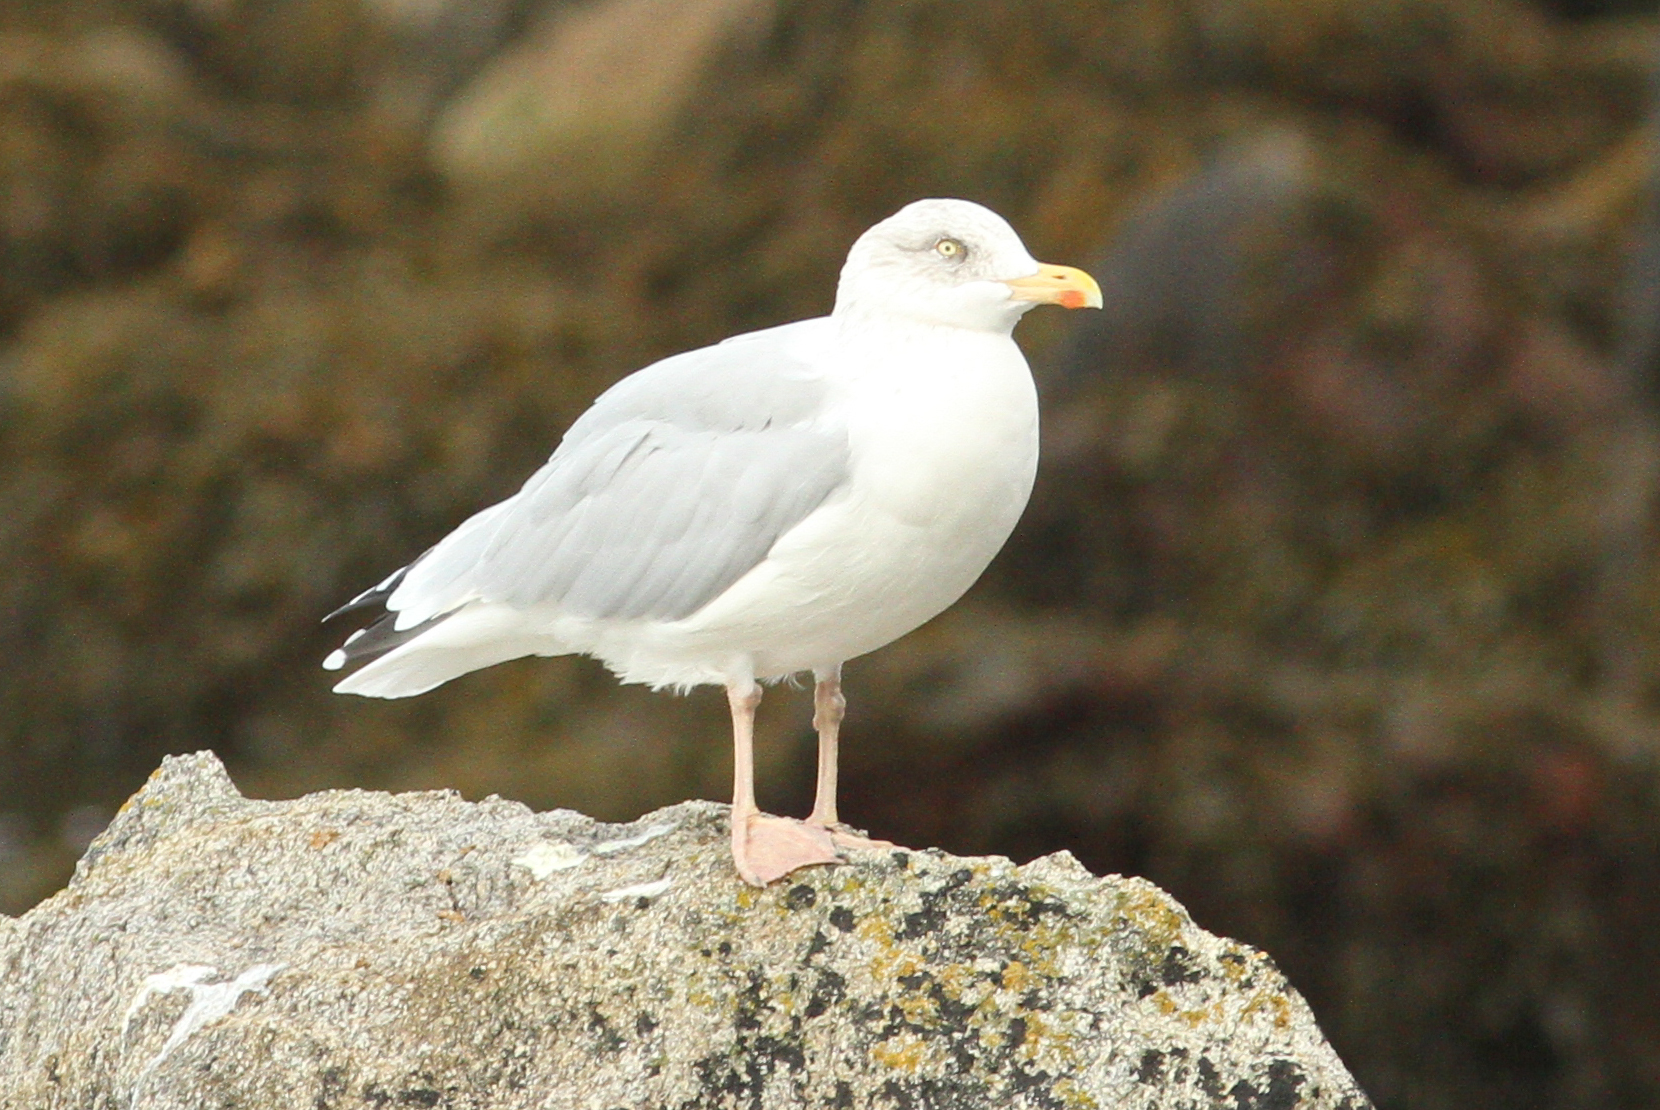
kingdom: Animalia
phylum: Chordata
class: Aves
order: Charadriiformes
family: Laridae
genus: Larus
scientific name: Larus argentatus
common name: Herring gull
